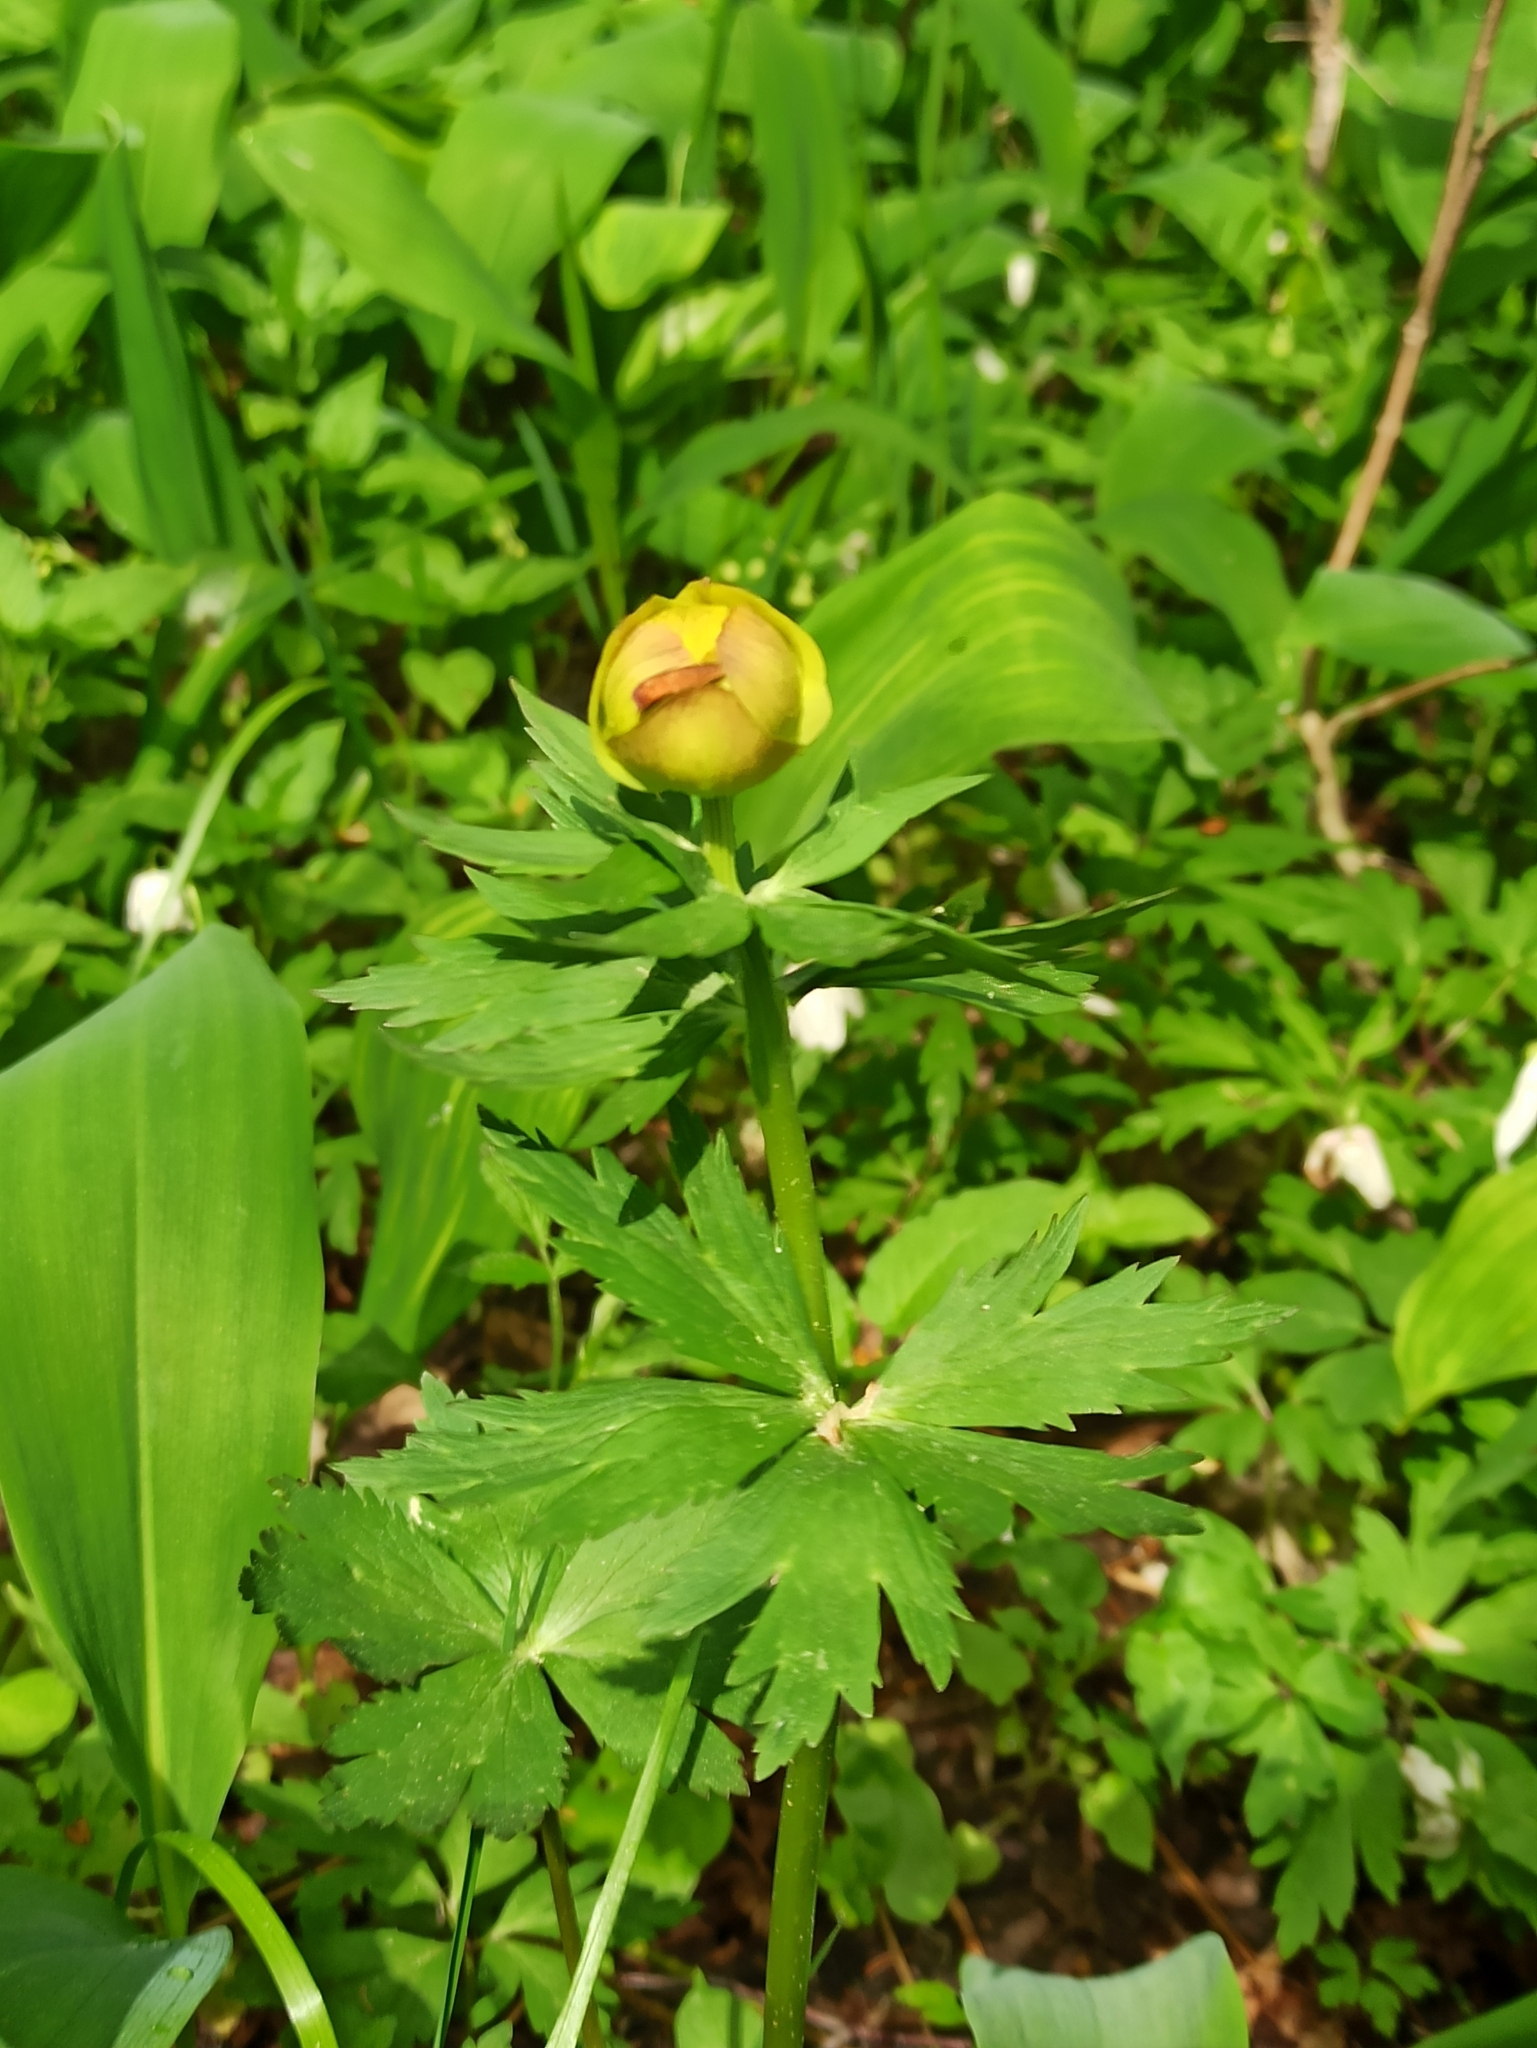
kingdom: Plantae
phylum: Tracheophyta
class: Magnoliopsida
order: Ranunculales
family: Ranunculaceae
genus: Trollius
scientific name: Trollius europaeus
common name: European globeflower
